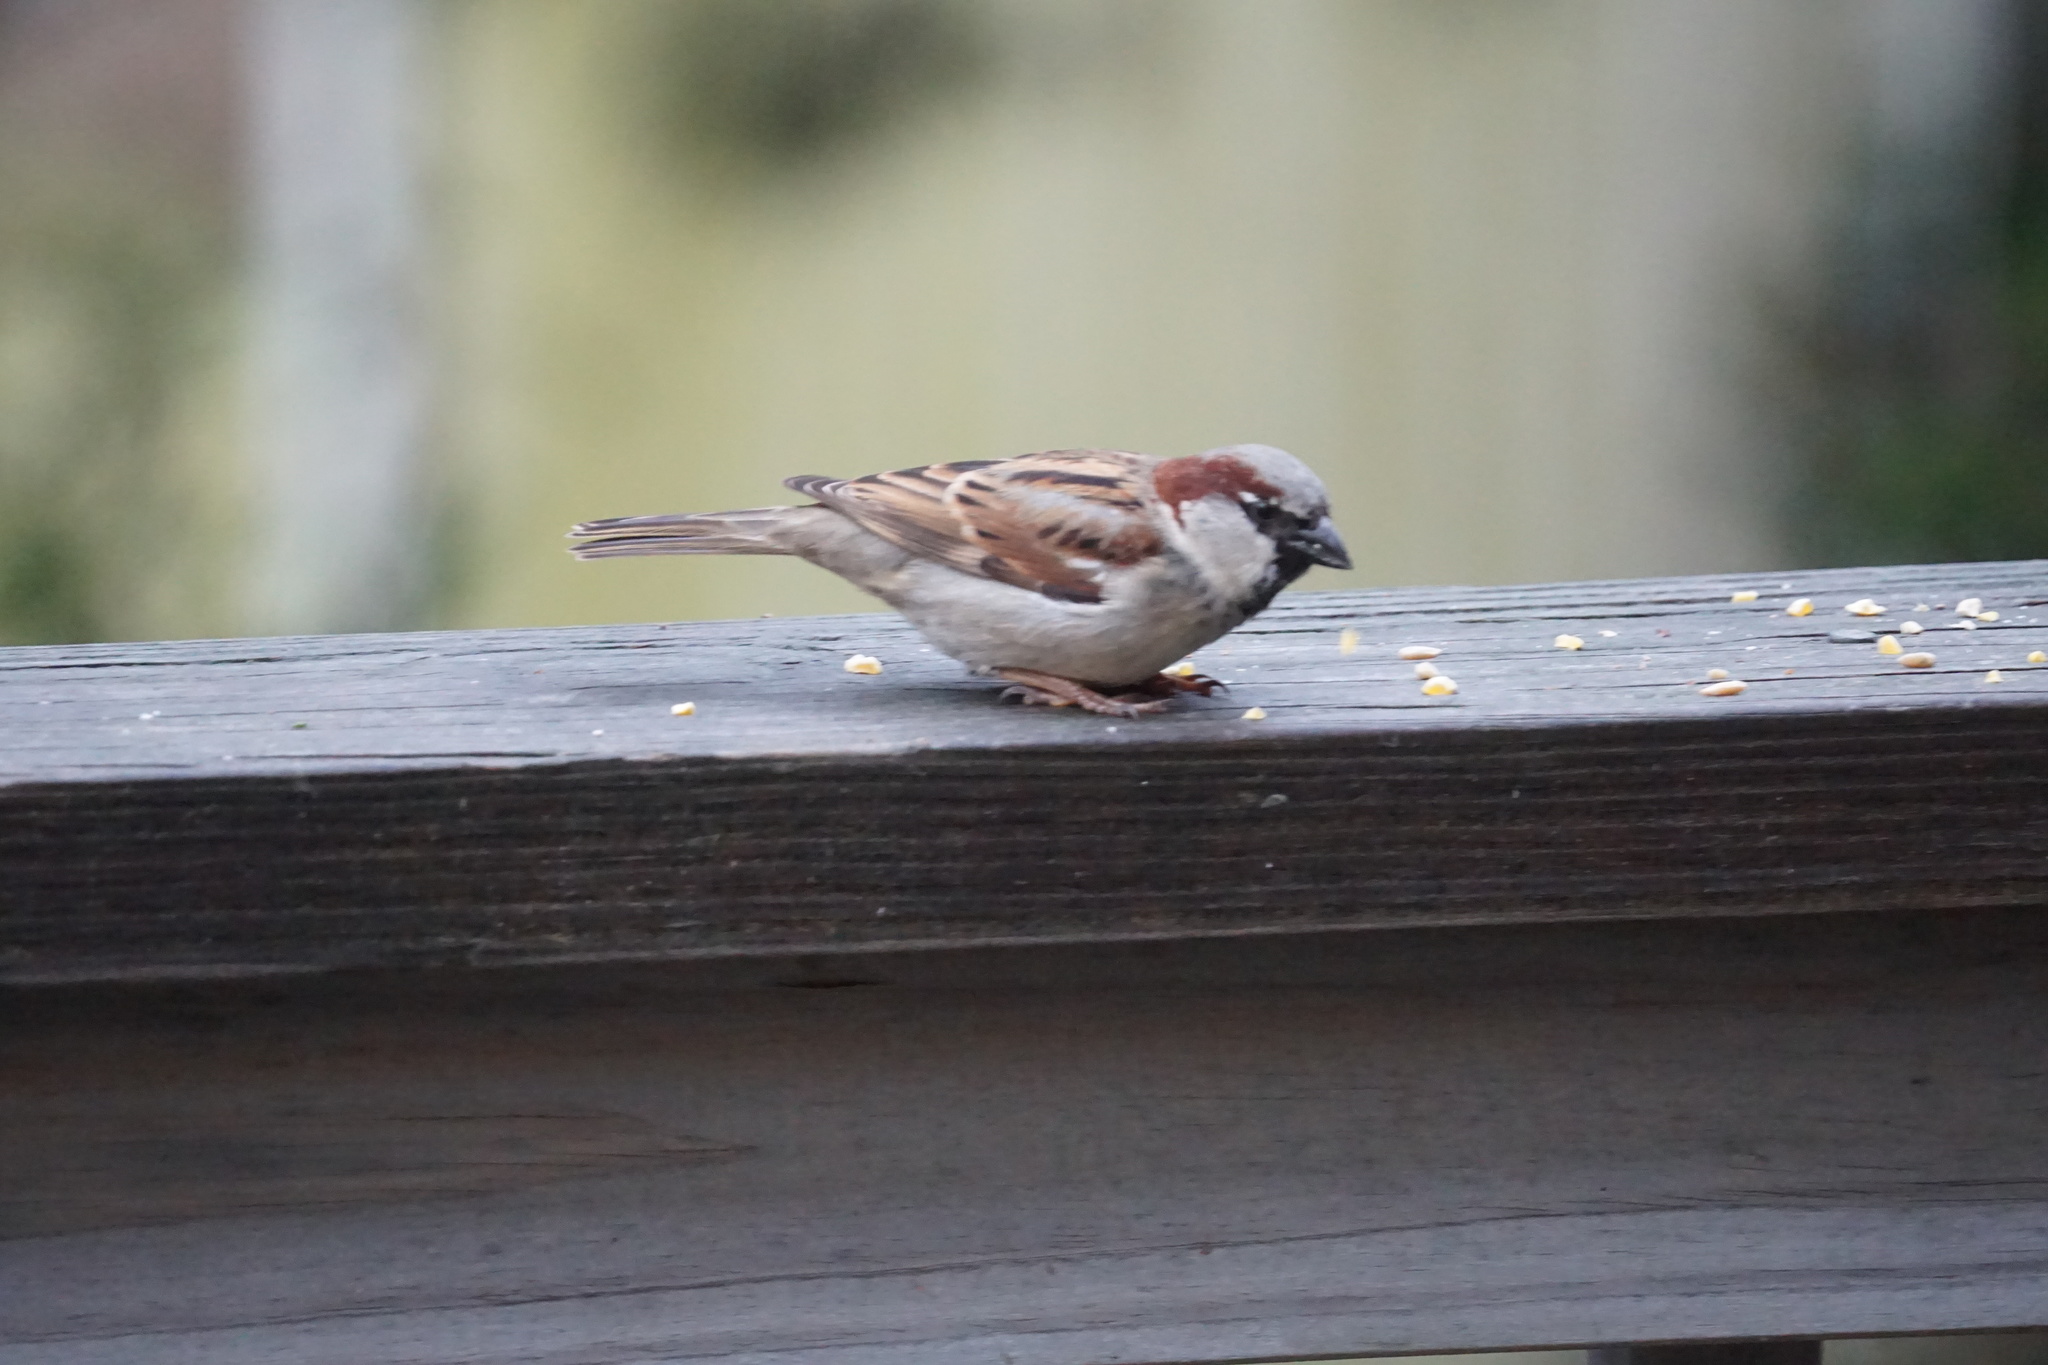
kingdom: Animalia
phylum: Chordata
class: Aves
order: Passeriformes
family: Passeridae
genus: Passer
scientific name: Passer domesticus
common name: House sparrow
